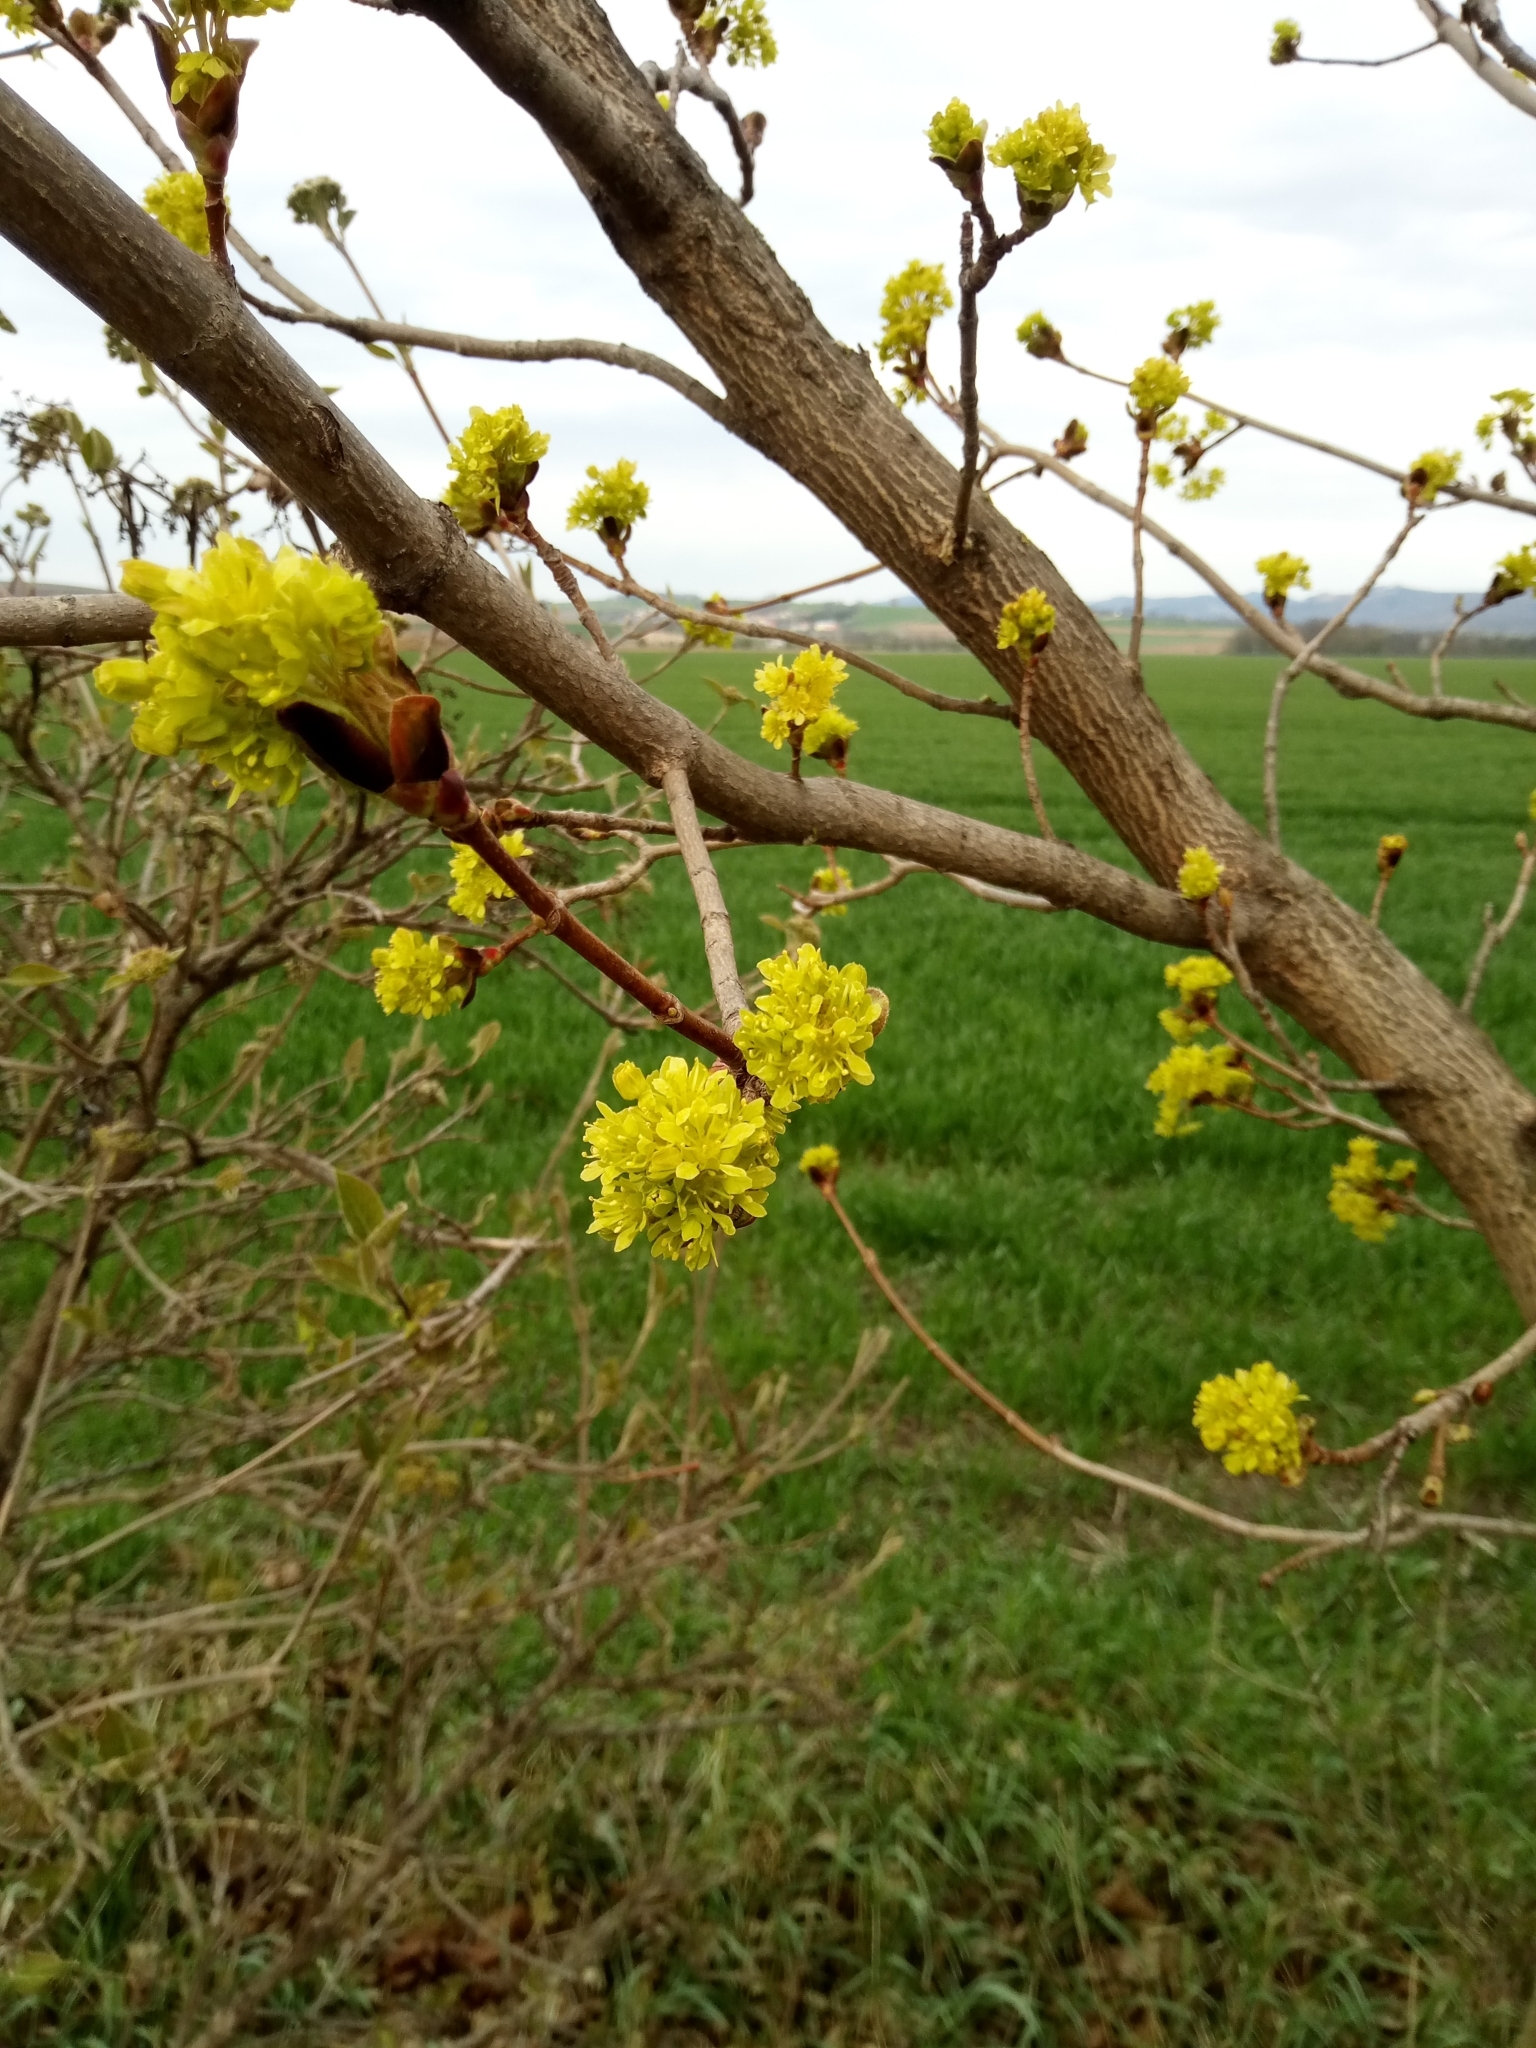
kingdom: Plantae
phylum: Tracheophyta
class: Magnoliopsida
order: Sapindales
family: Sapindaceae
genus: Acer
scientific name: Acer platanoides
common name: Norway maple
